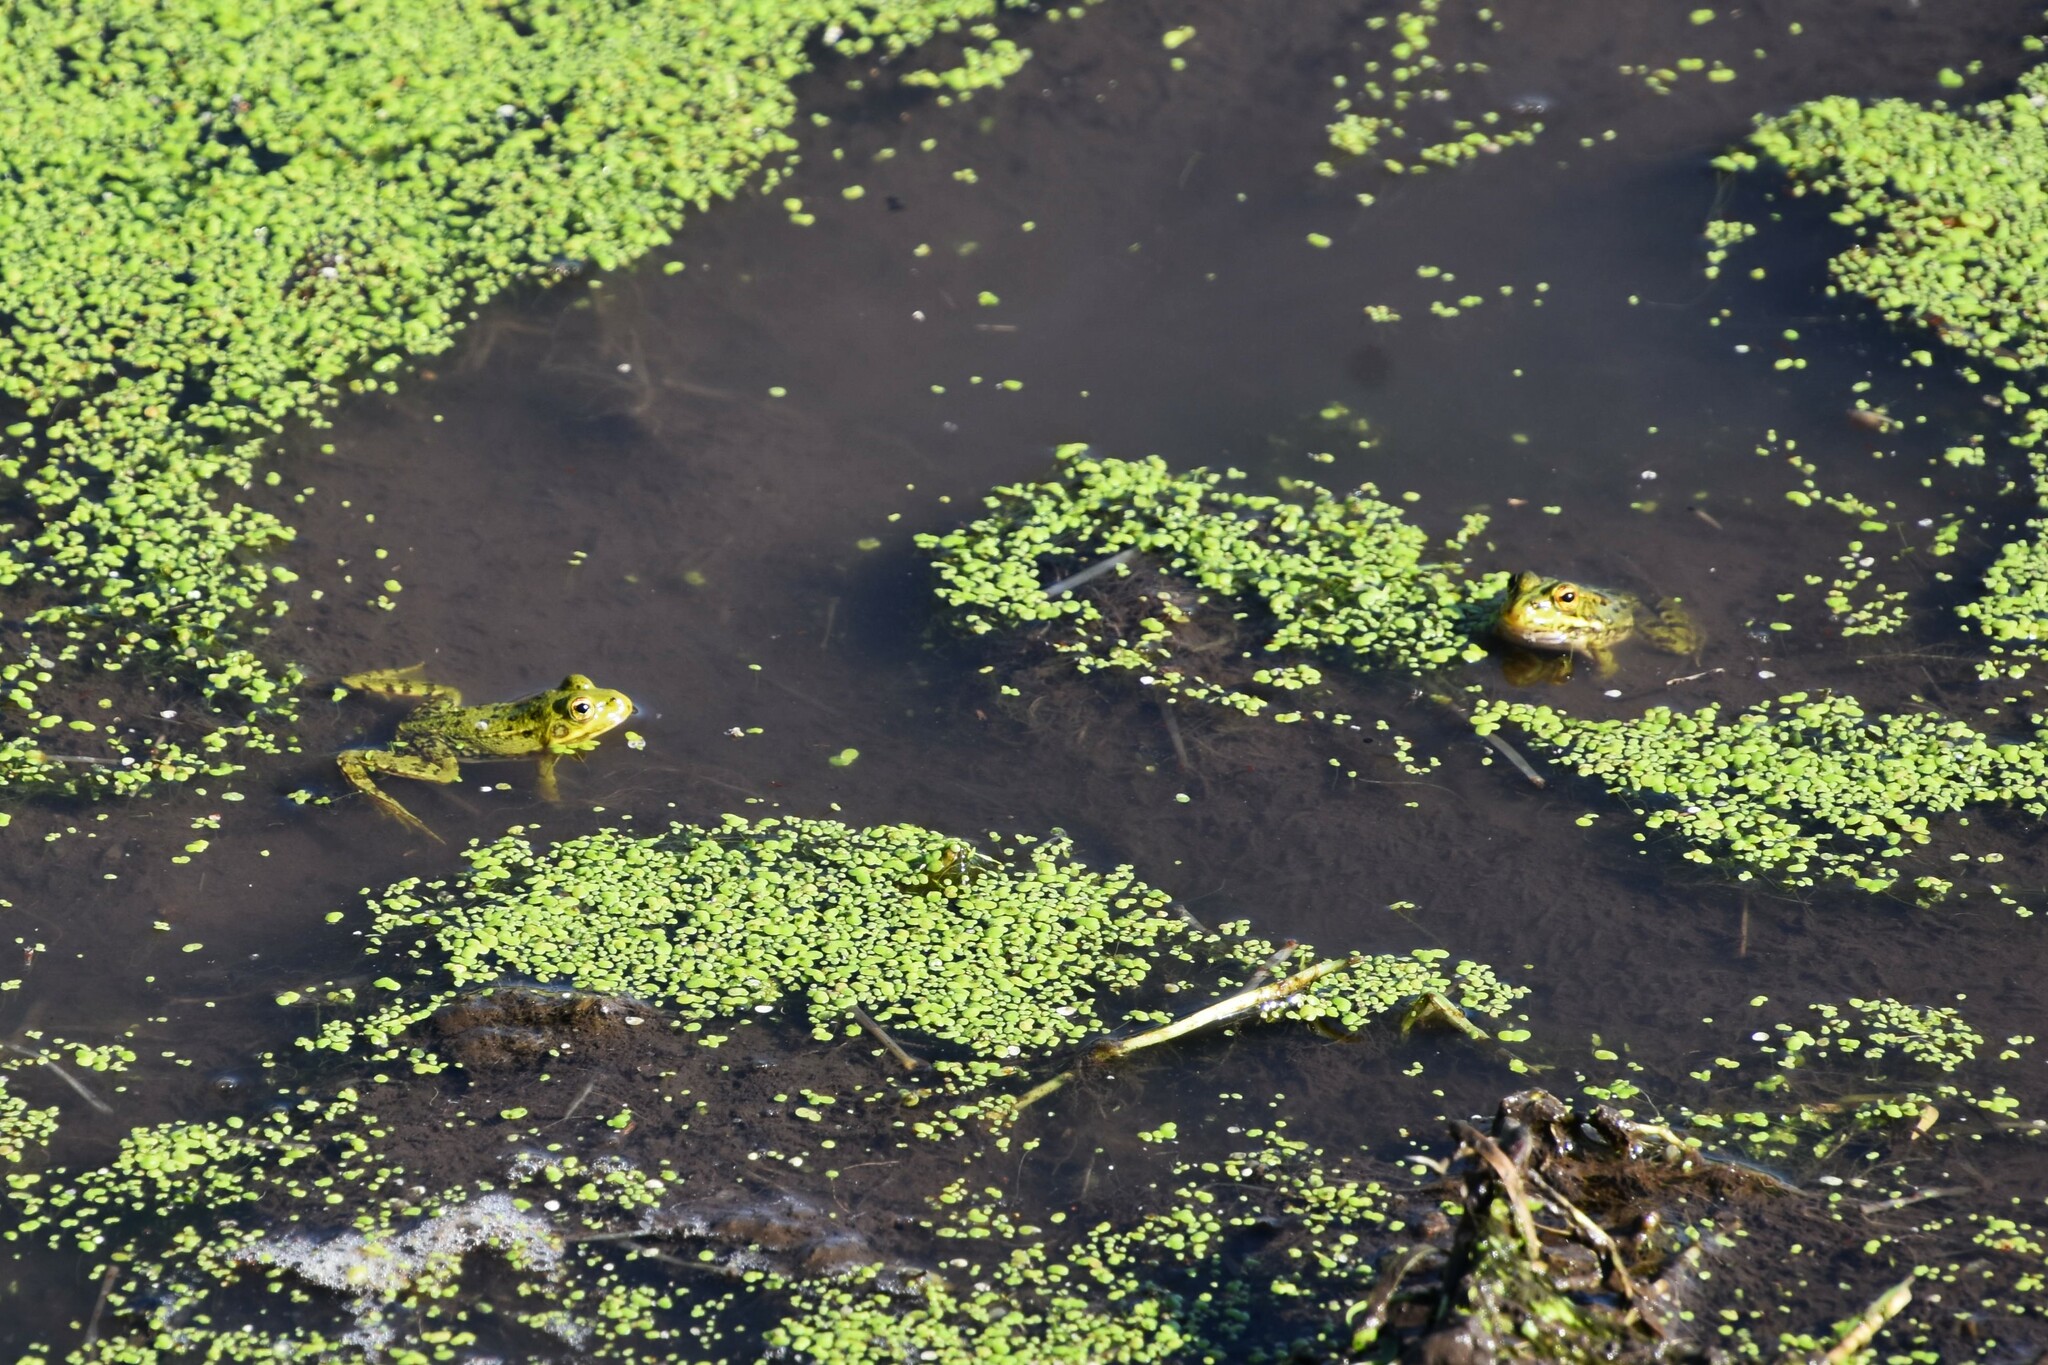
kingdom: Animalia
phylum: Chordata
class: Amphibia
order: Anura
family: Ranidae
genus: Pelophylax
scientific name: Pelophylax perezi
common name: Perez's frog
